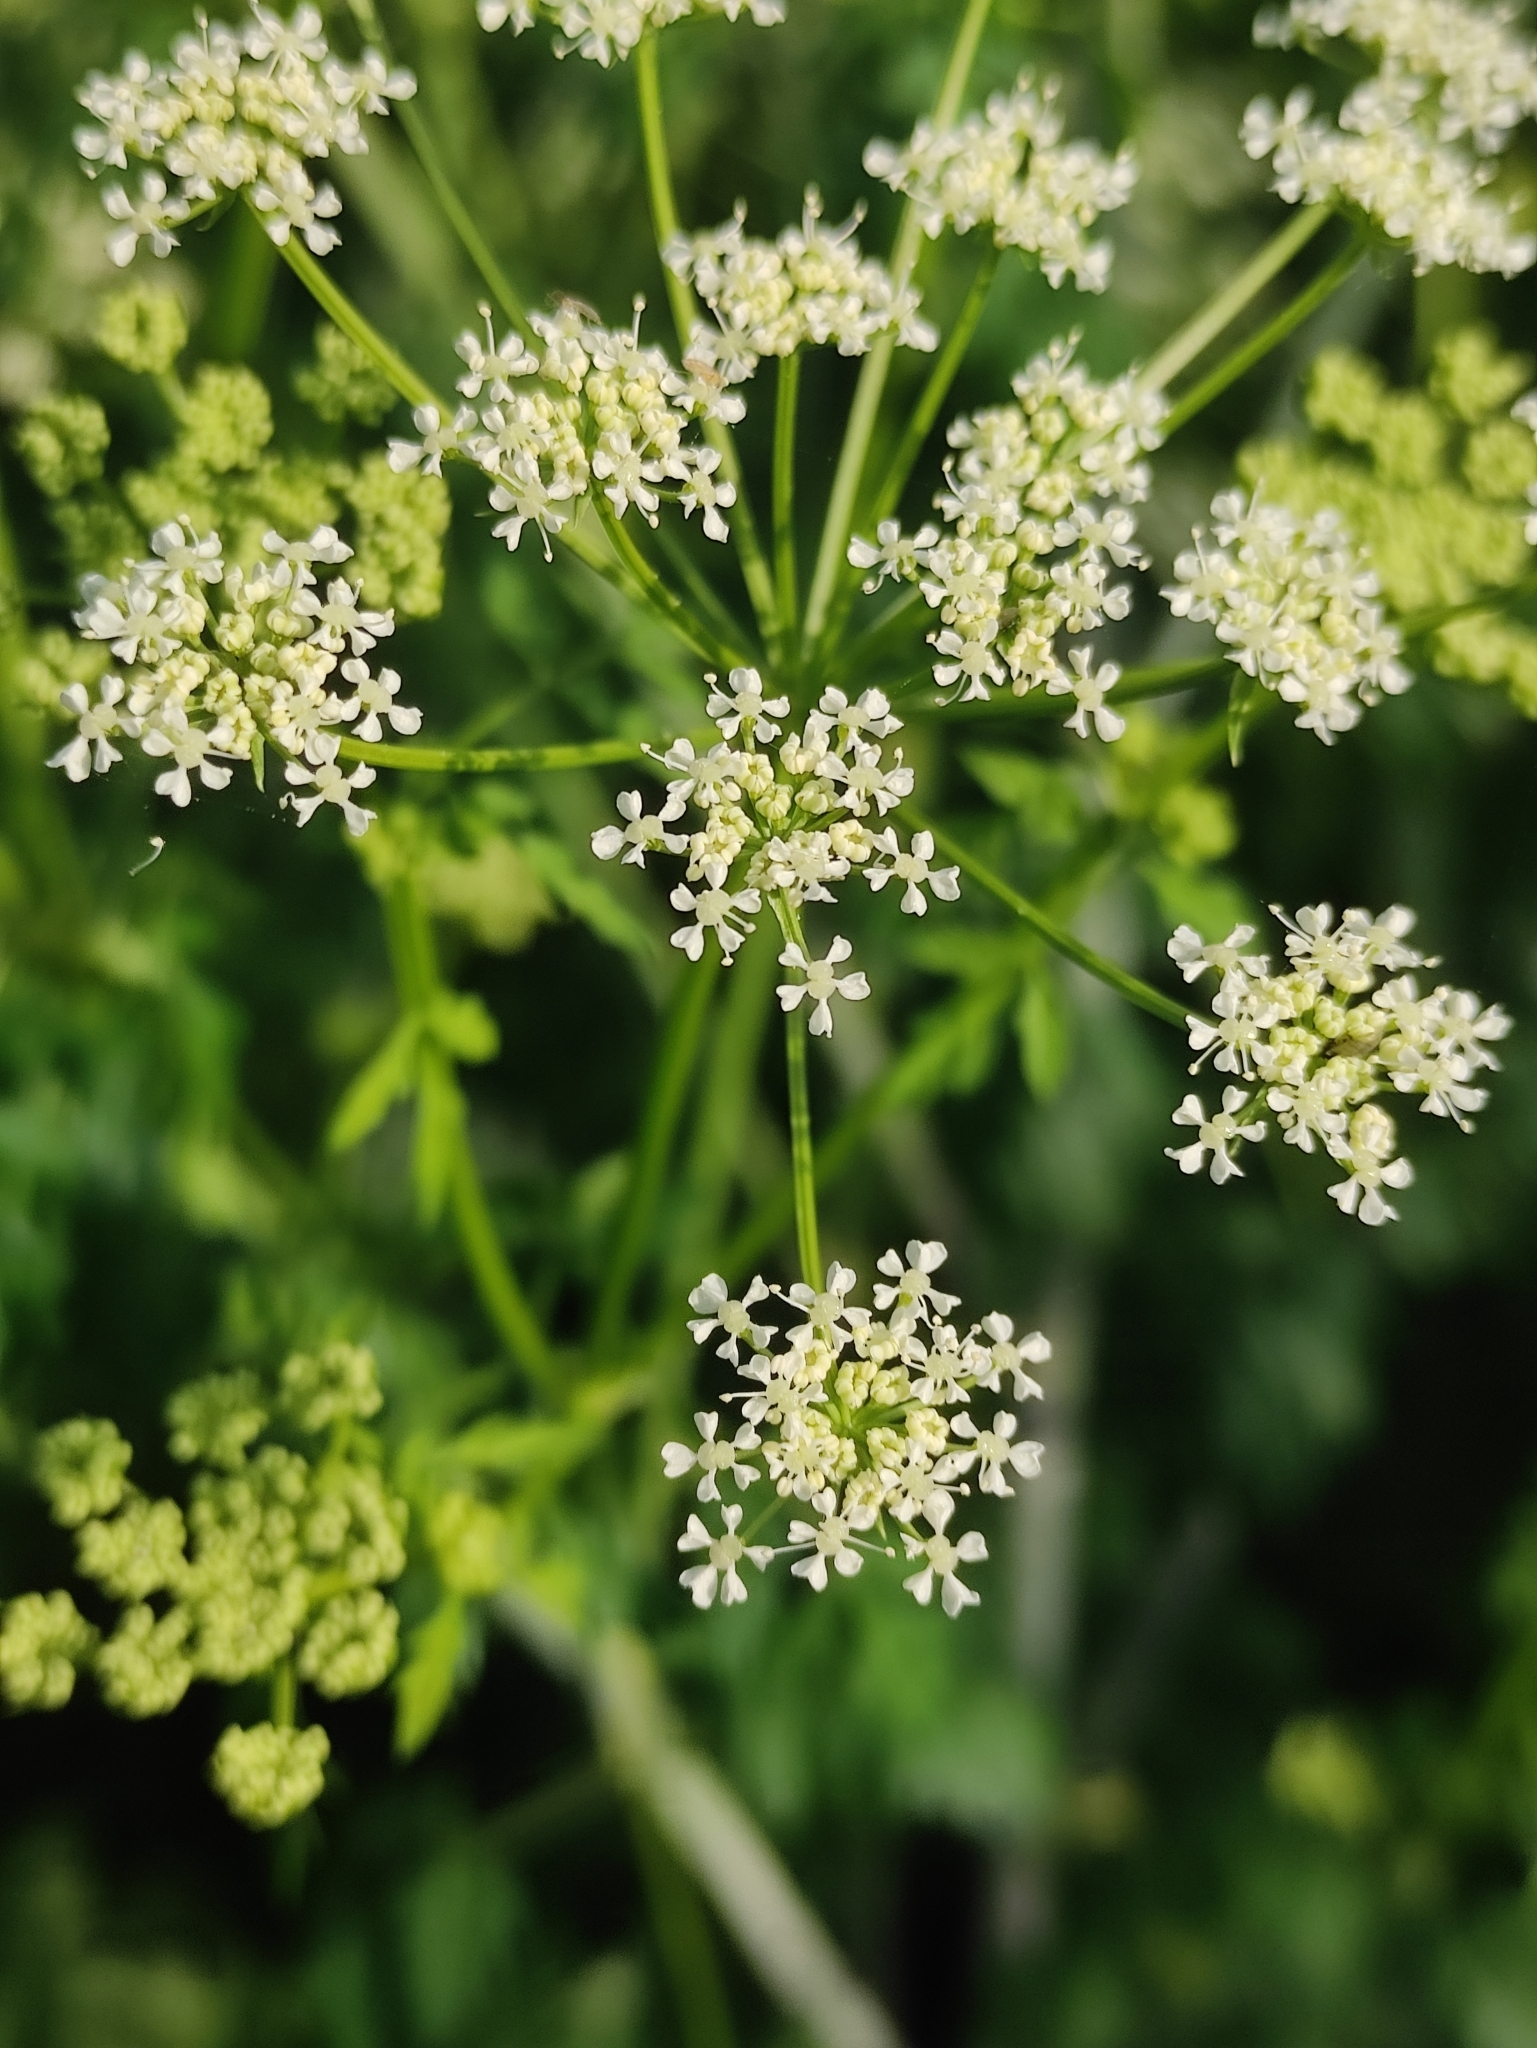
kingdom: Plantae
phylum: Tracheophyta
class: Magnoliopsida
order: Apiales
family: Apiaceae
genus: Conium
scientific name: Conium maculatum
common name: Hemlock
